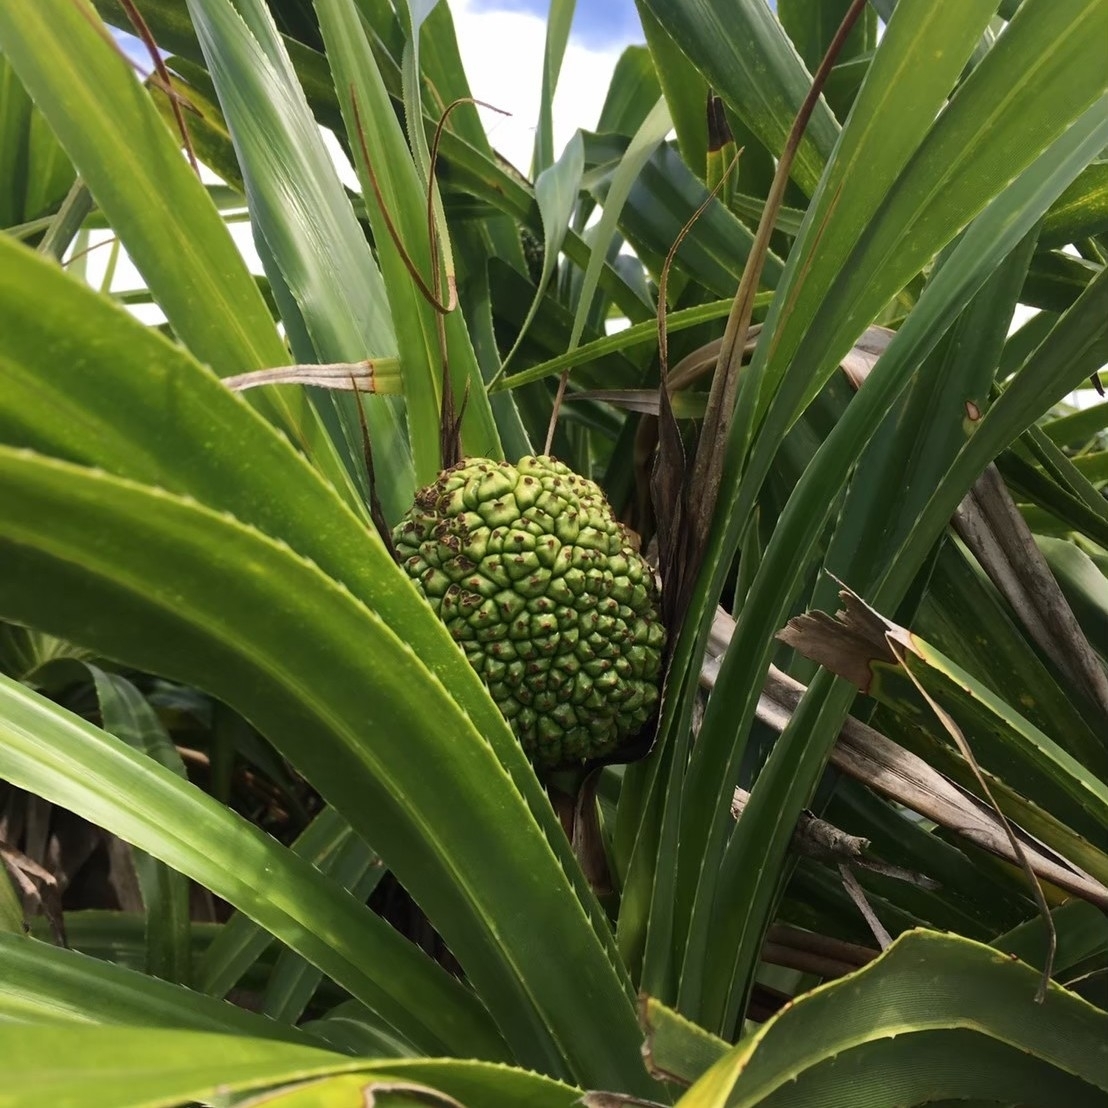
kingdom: Plantae
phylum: Tracheophyta
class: Liliopsida
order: Pandanales
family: Pandanaceae
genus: Pandanus
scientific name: Pandanus odorifer
